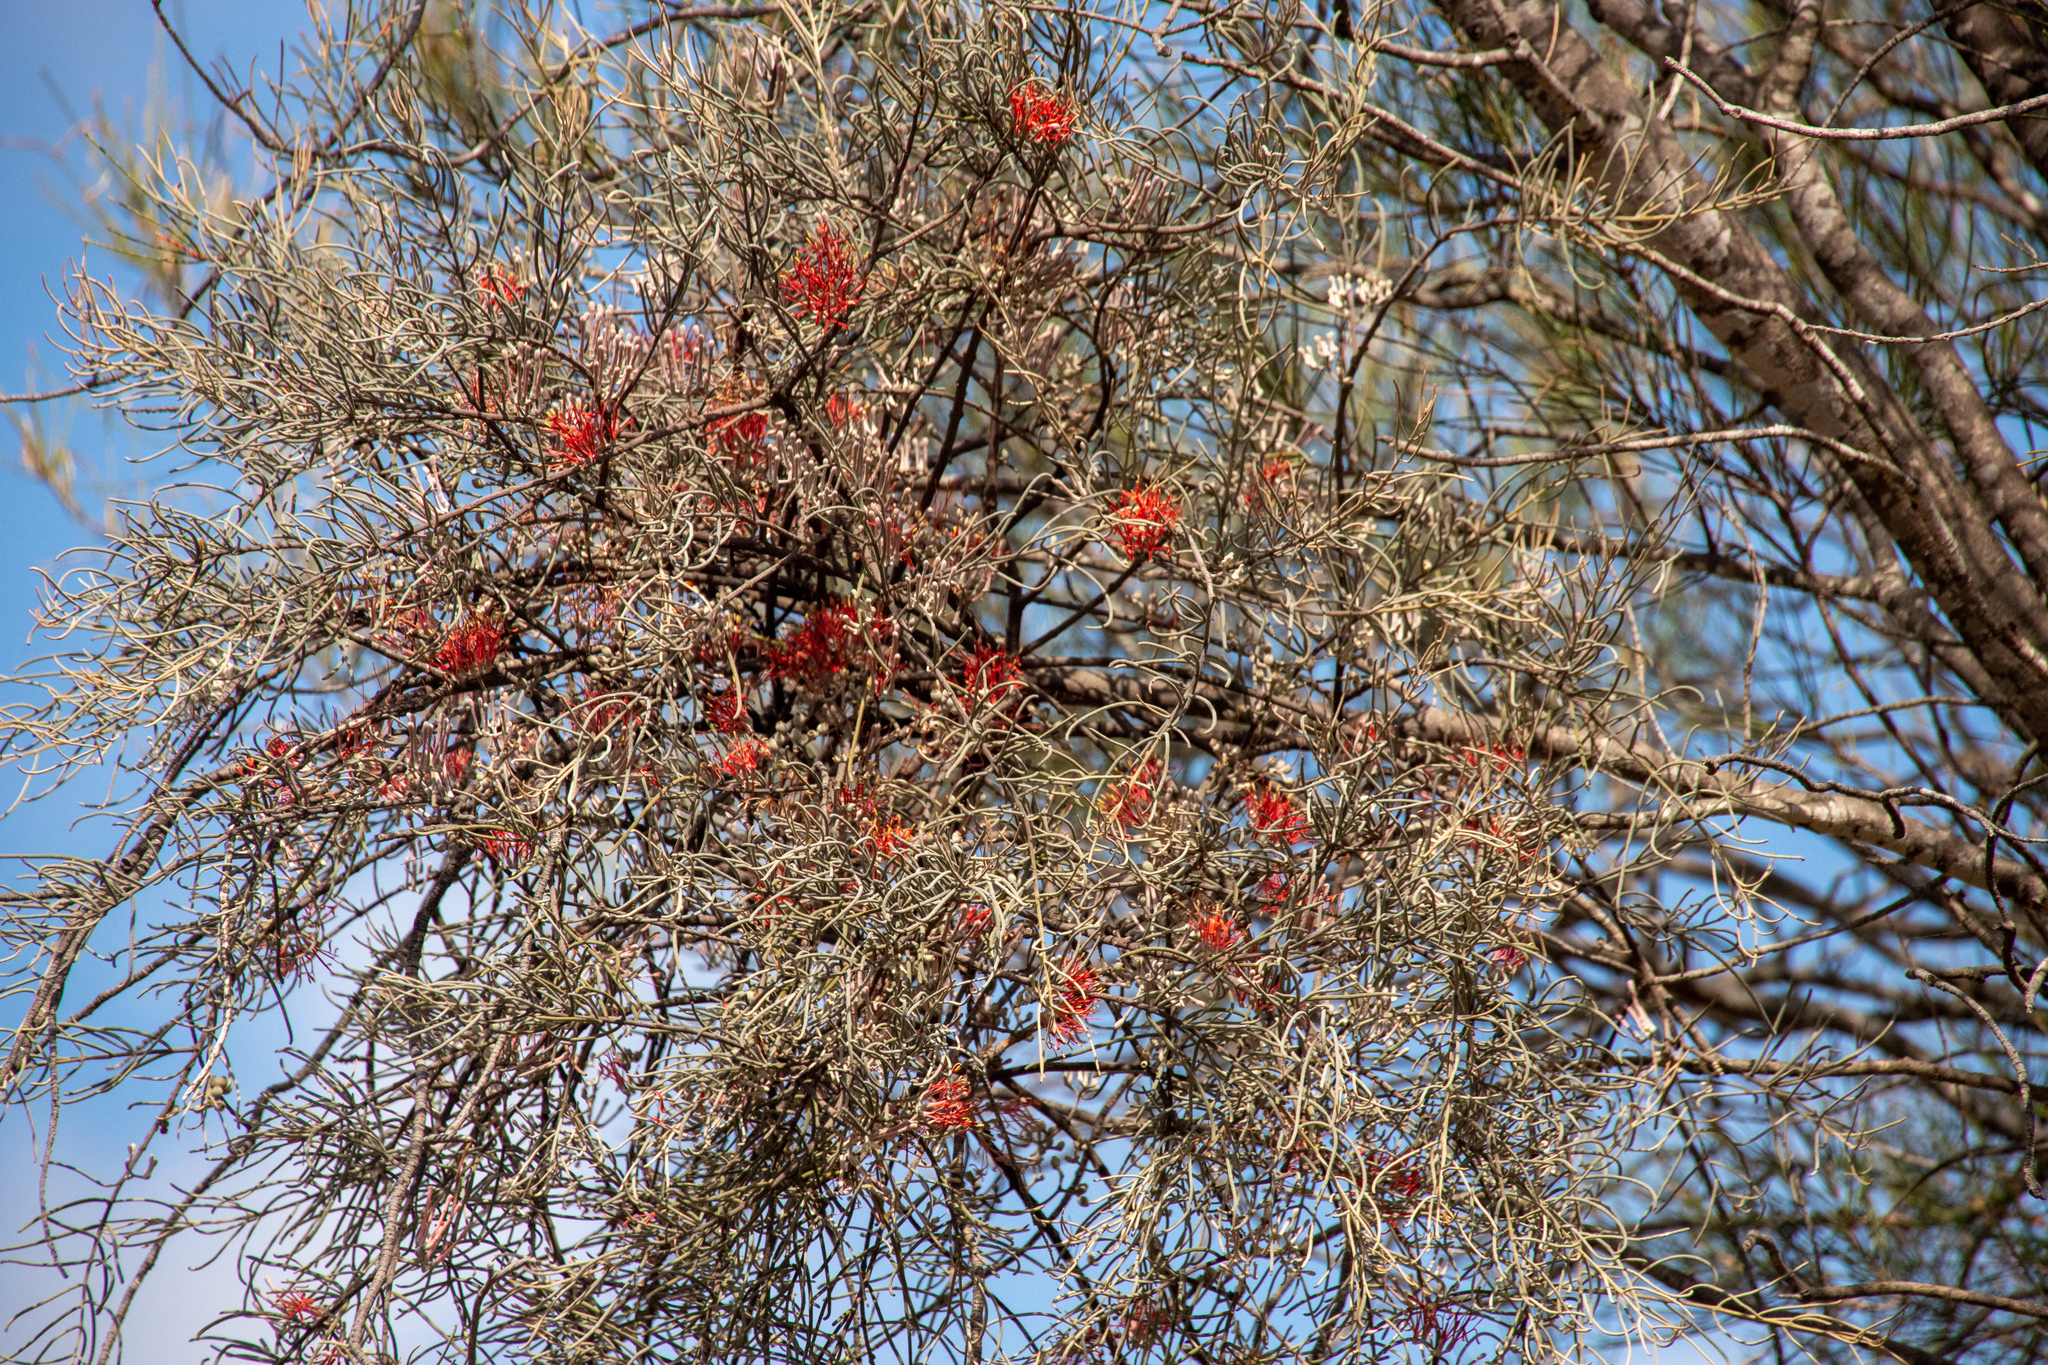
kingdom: Plantae
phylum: Tracheophyta
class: Magnoliopsida
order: Santalales
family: Loranthaceae
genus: Amyema
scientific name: Amyema linophylla
